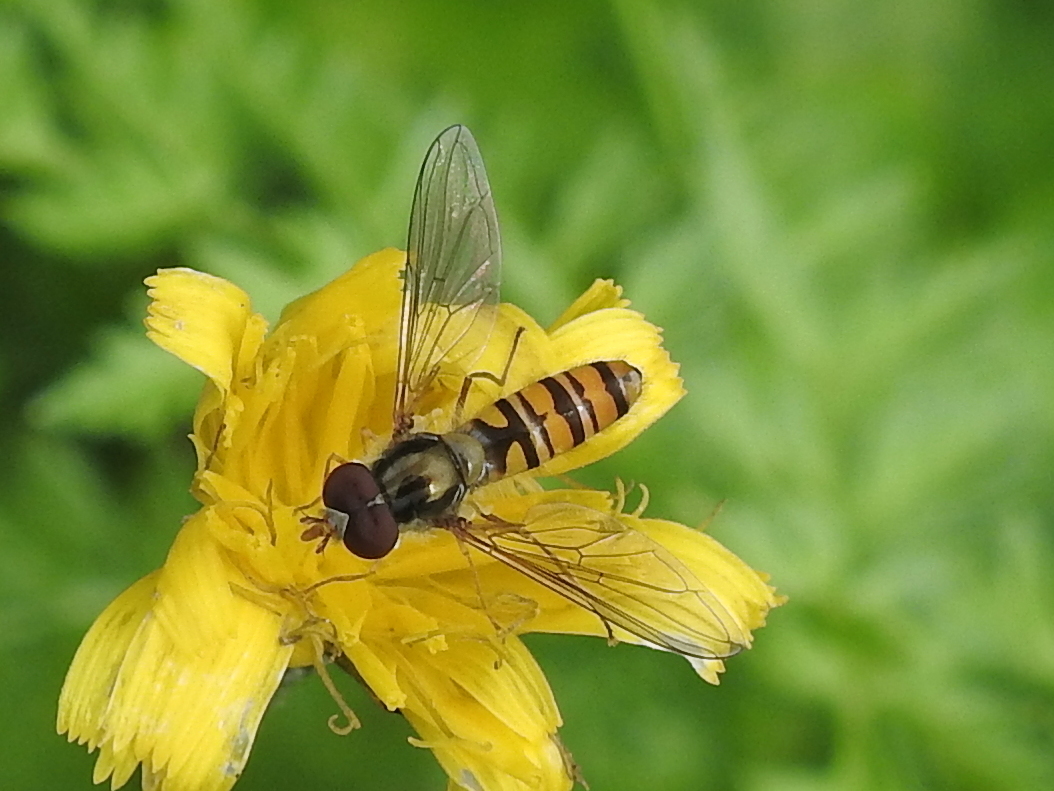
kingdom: Animalia
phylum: Arthropoda
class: Insecta
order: Diptera
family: Syrphidae
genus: Episyrphus
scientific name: Episyrphus balteatus
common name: Marmalade hoverfly
